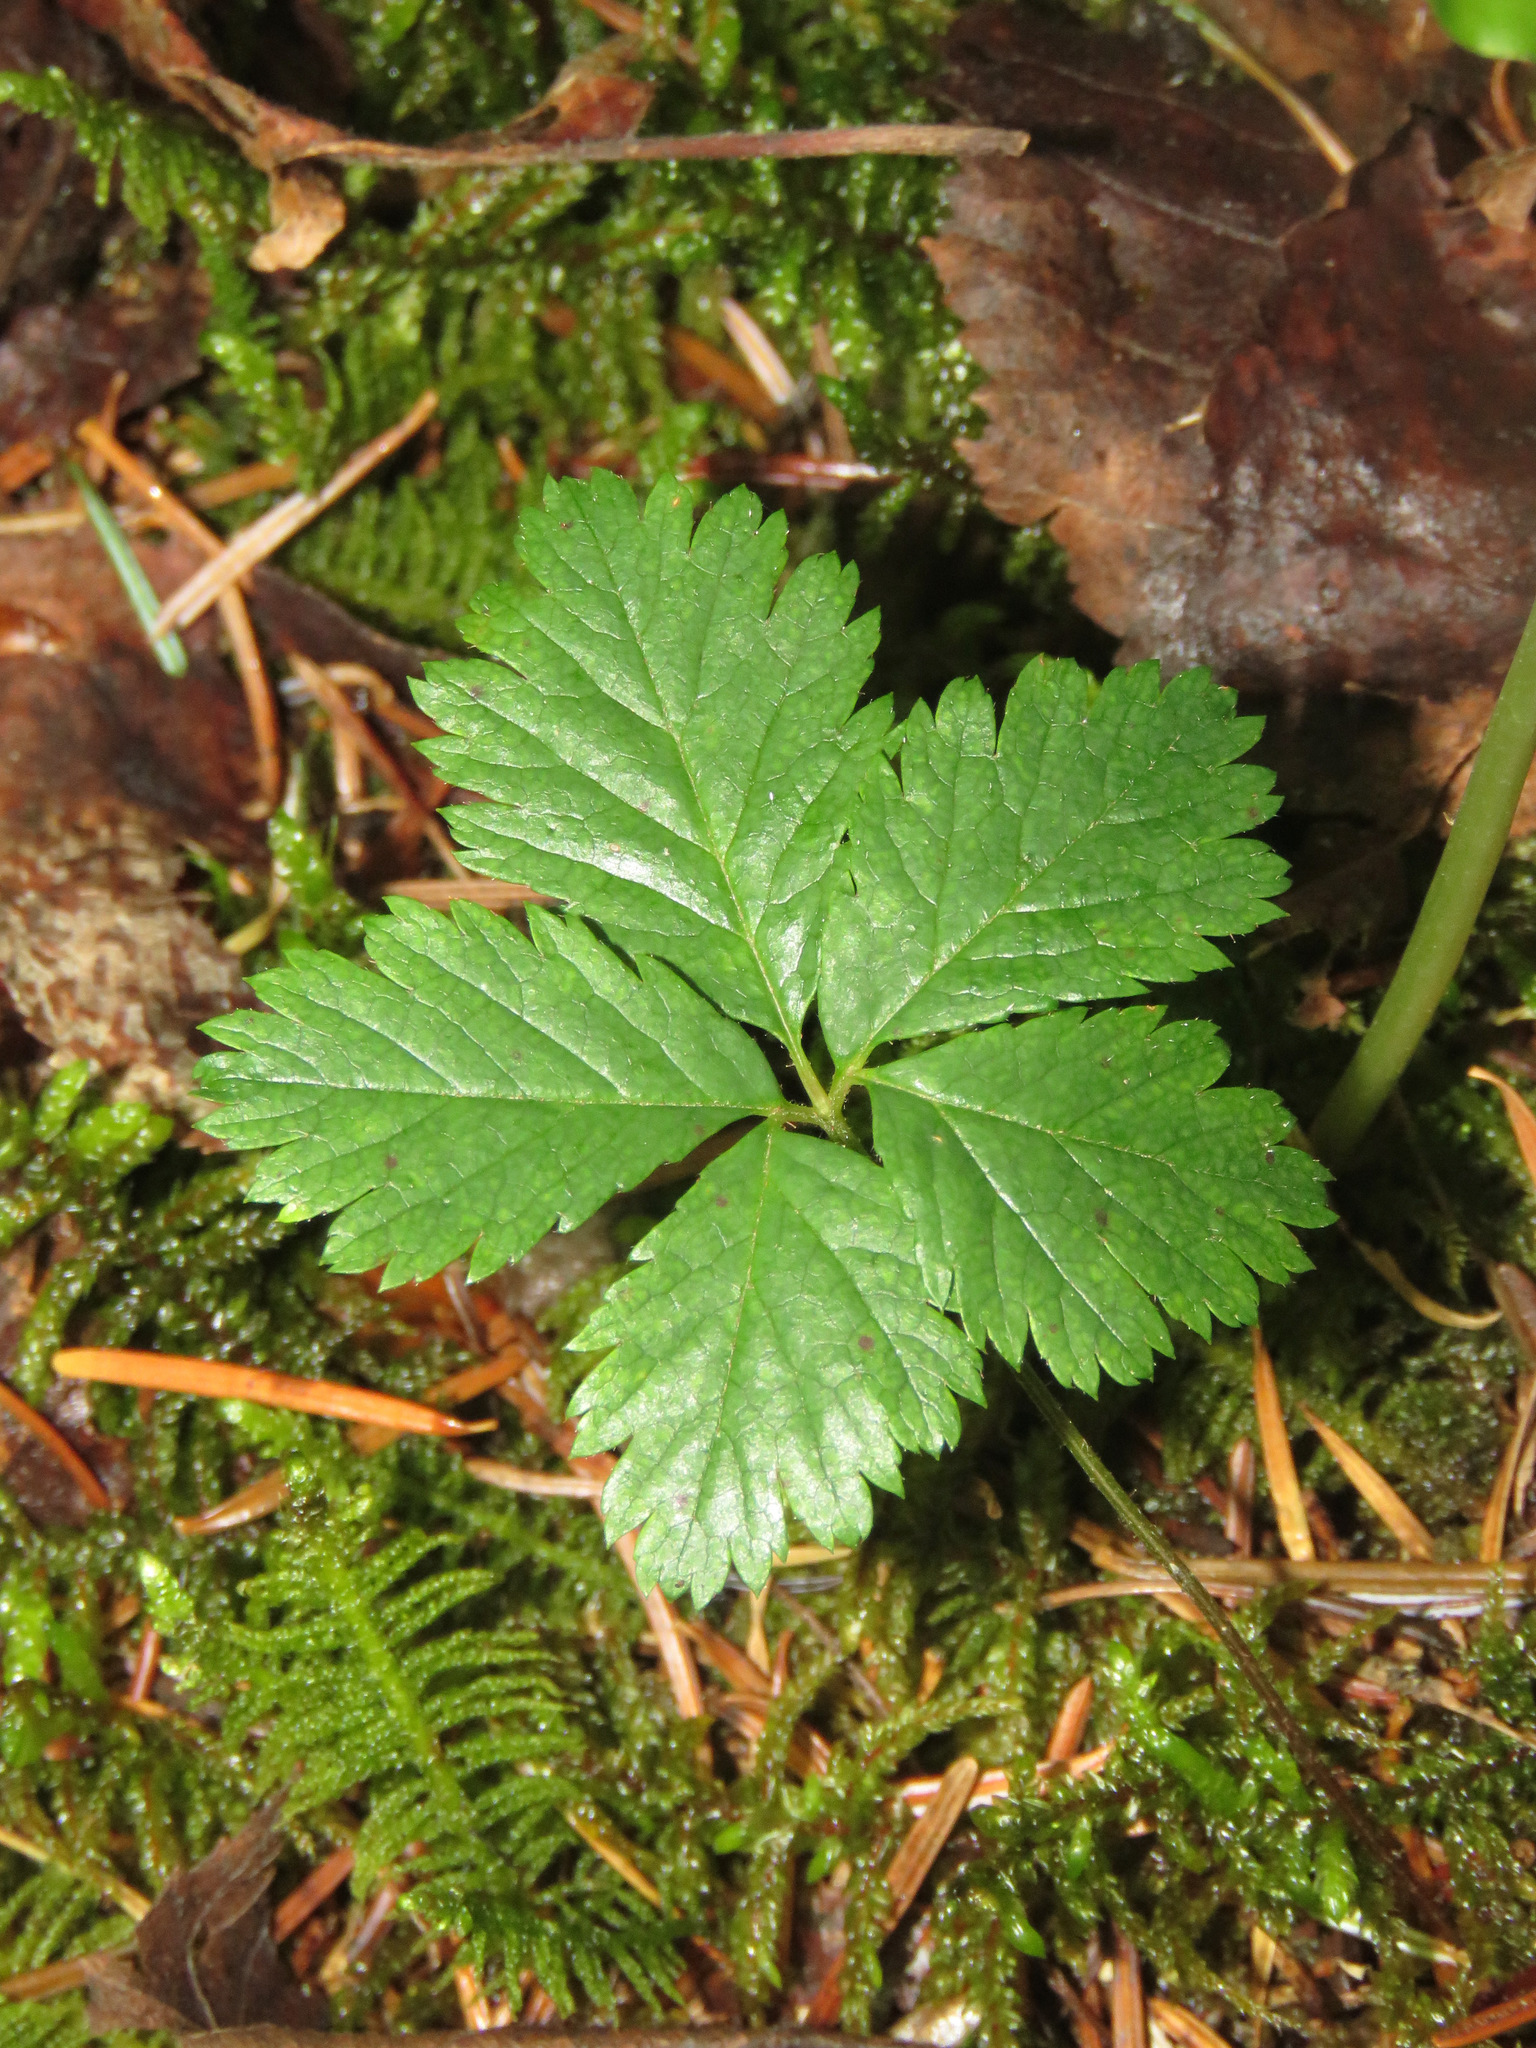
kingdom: Plantae
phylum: Tracheophyta
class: Magnoliopsida
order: Rosales
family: Rosaceae
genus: Rubus
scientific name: Rubus pedatus
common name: Creeping raspberry
